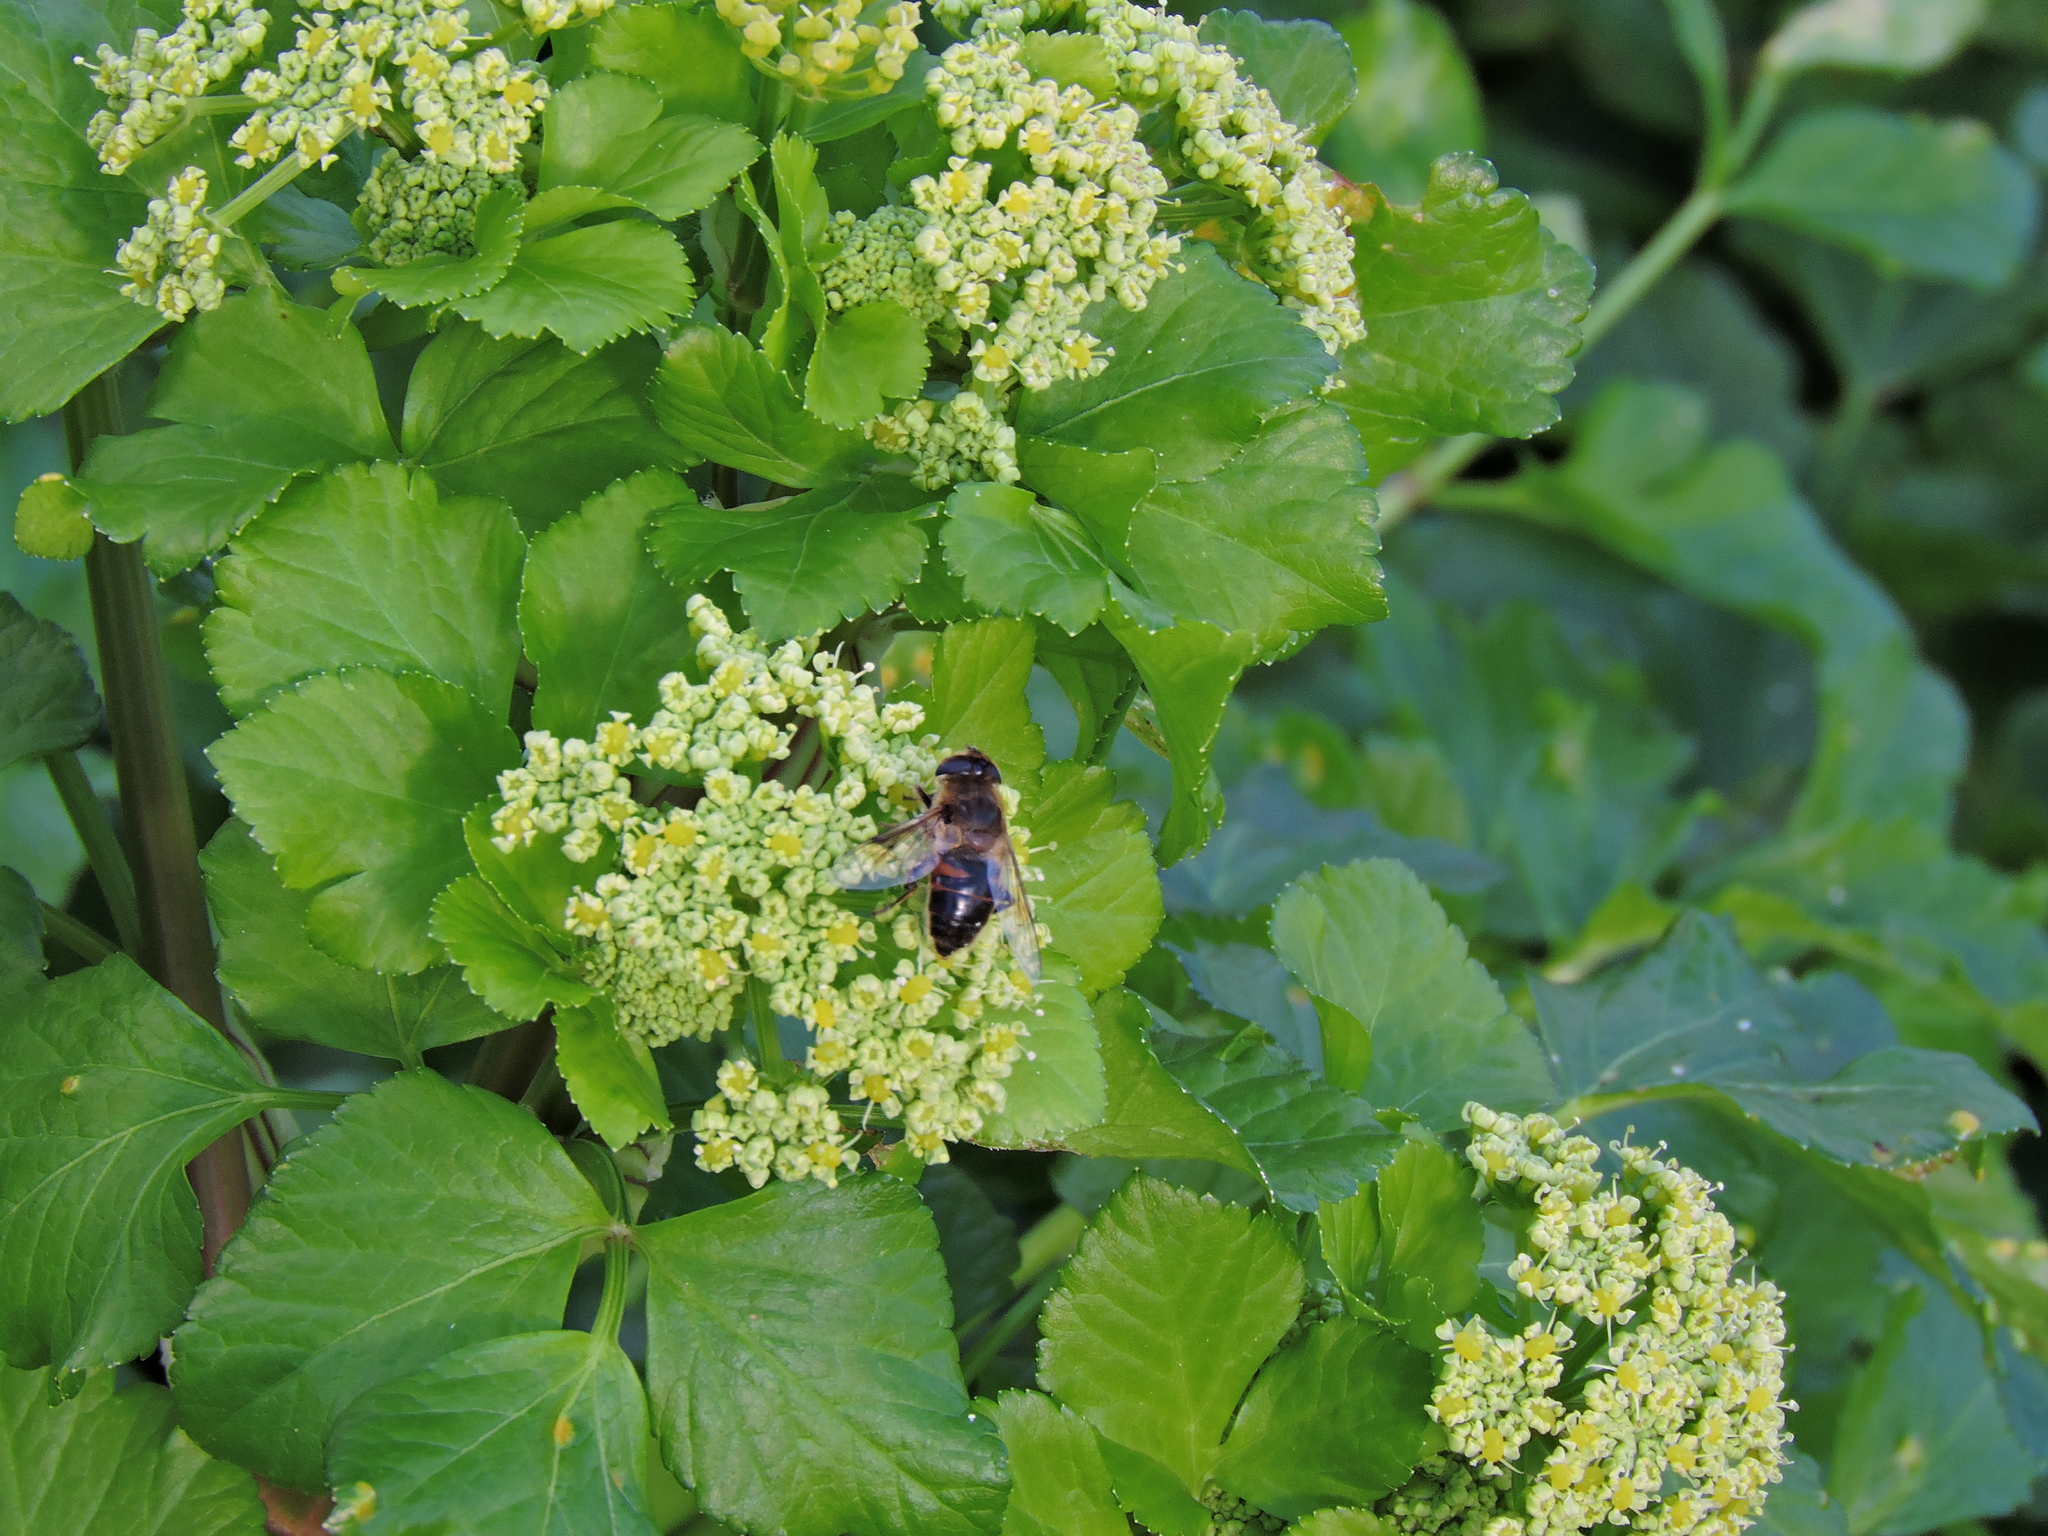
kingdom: Animalia
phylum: Arthropoda
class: Insecta
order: Diptera
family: Syrphidae
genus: Eristalis
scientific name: Eristalis tenax
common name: Drone fly
